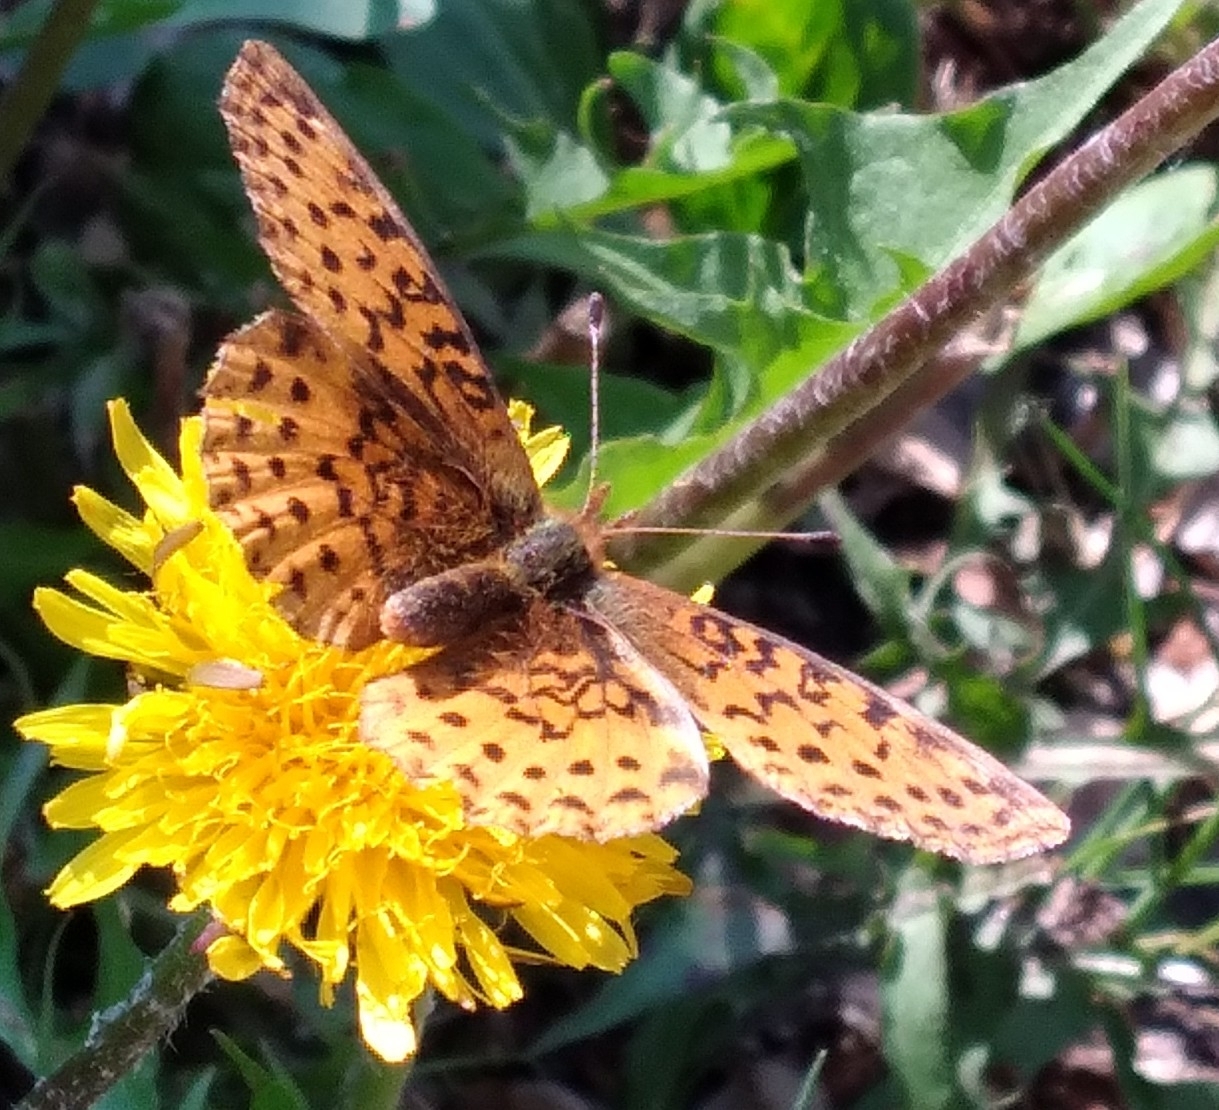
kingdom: Animalia
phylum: Arthropoda
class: Insecta
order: Lepidoptera
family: Nymphalidae
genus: Clossiana
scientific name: Clossiana toddi
